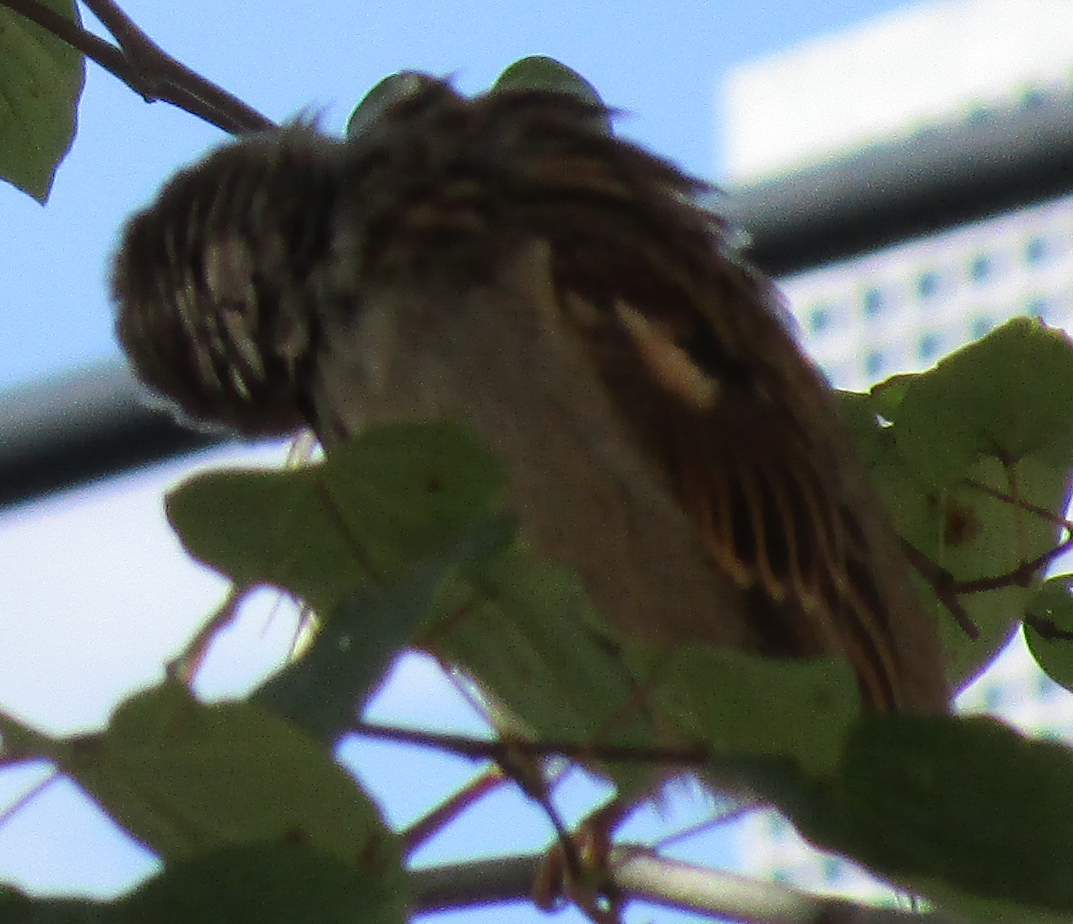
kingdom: Animalia
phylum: Chordata
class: Aves
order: Passeriformes
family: Passeridae
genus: Passer
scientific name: Passer domesticus
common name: House sparrow
